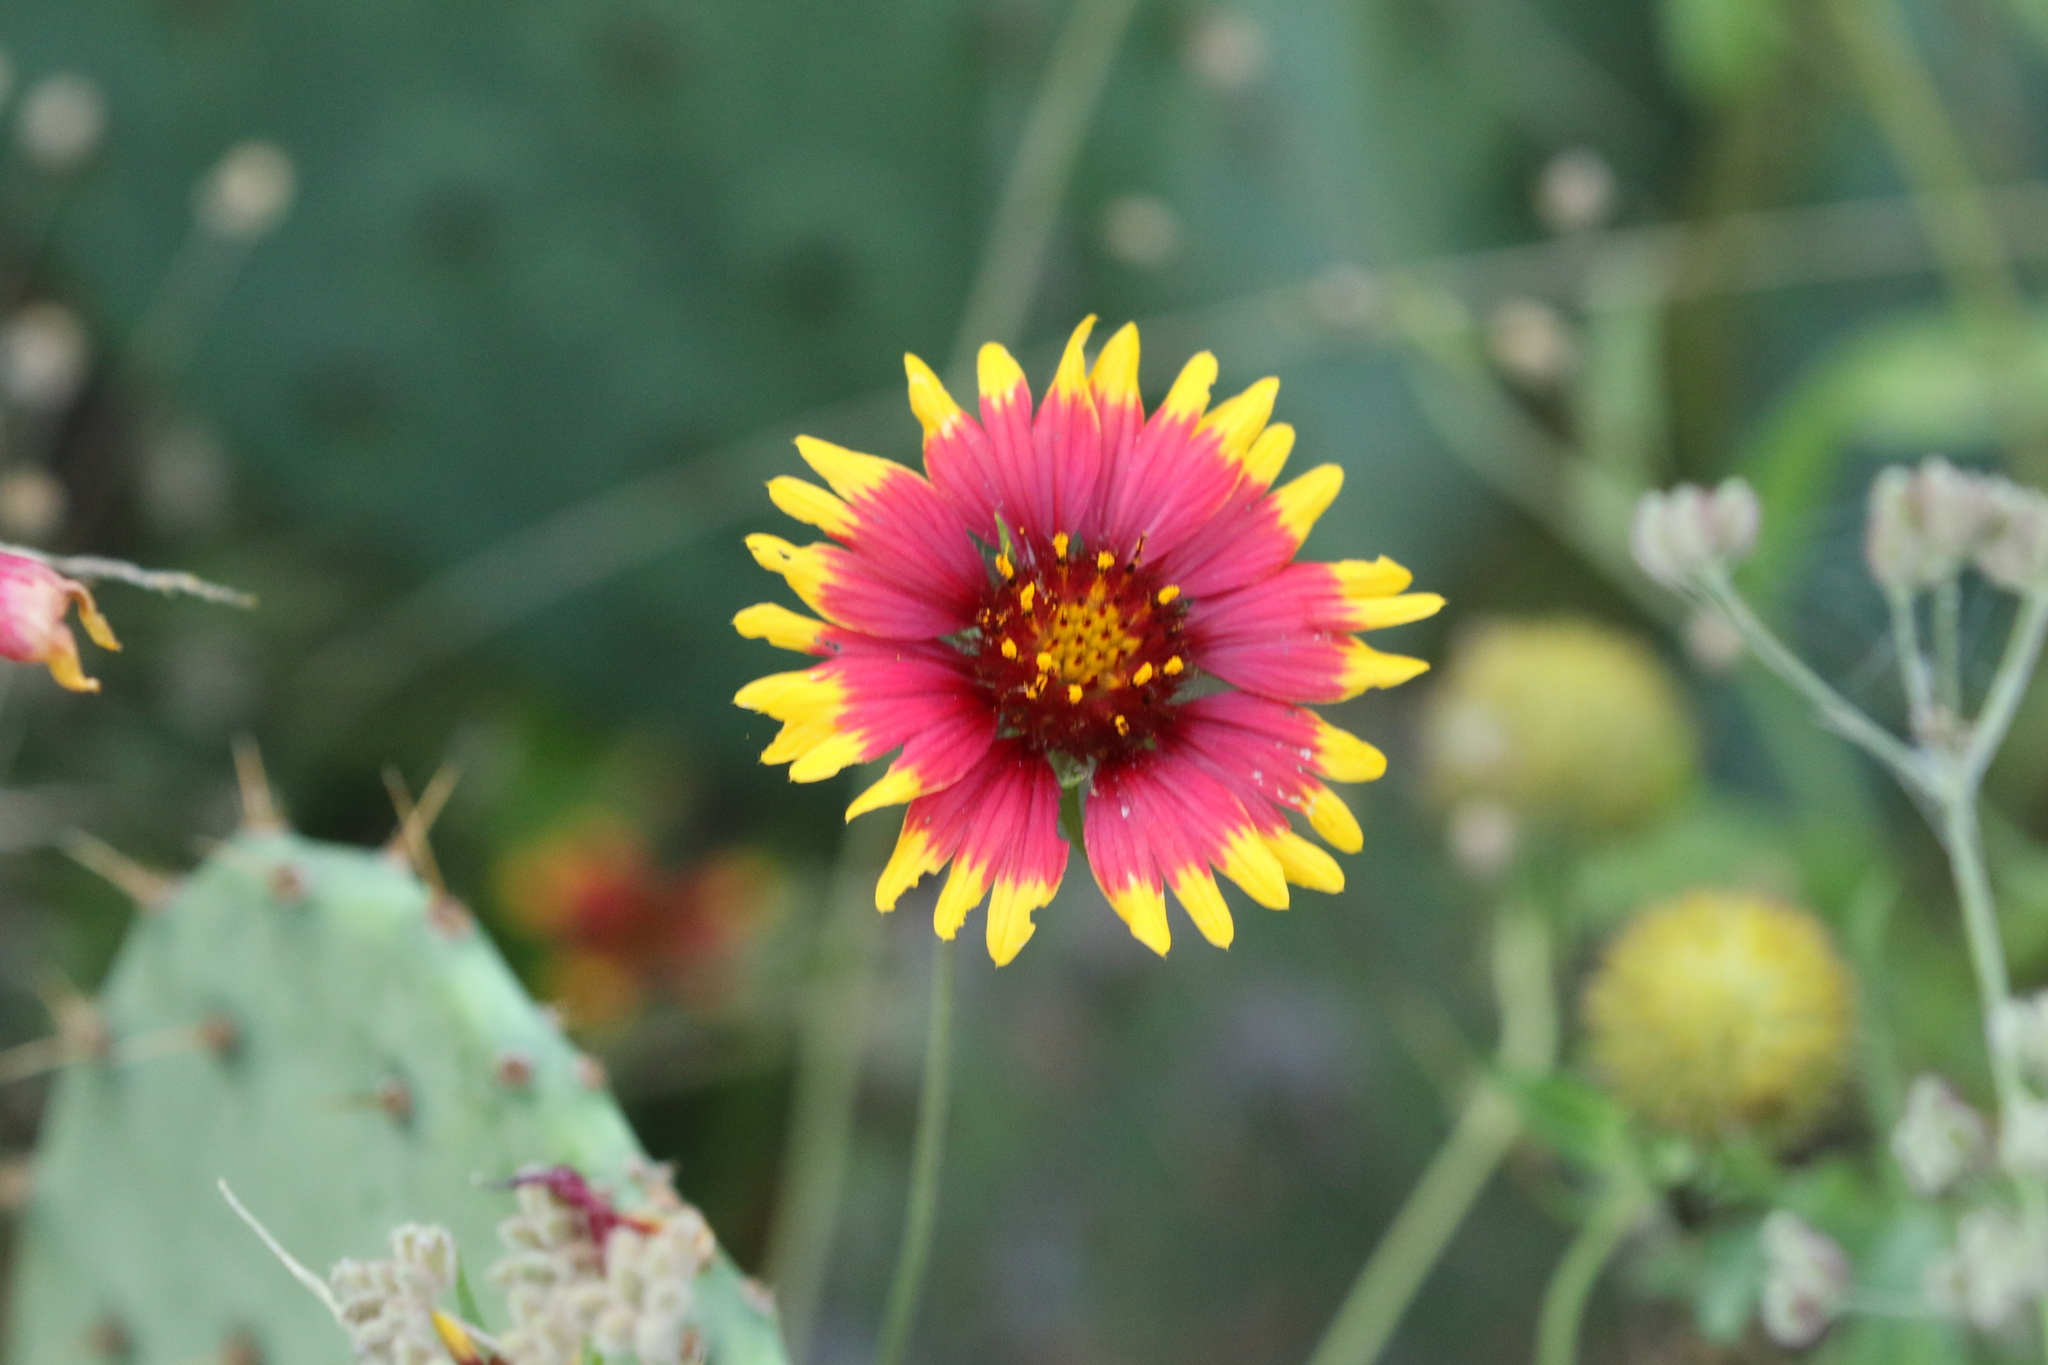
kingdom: Plantae
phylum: Tracheophyta
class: Magnoliopsida
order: Asterales
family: Asteraceae
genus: Gaillardia
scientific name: Gaillardia pulchella
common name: Firewheel
